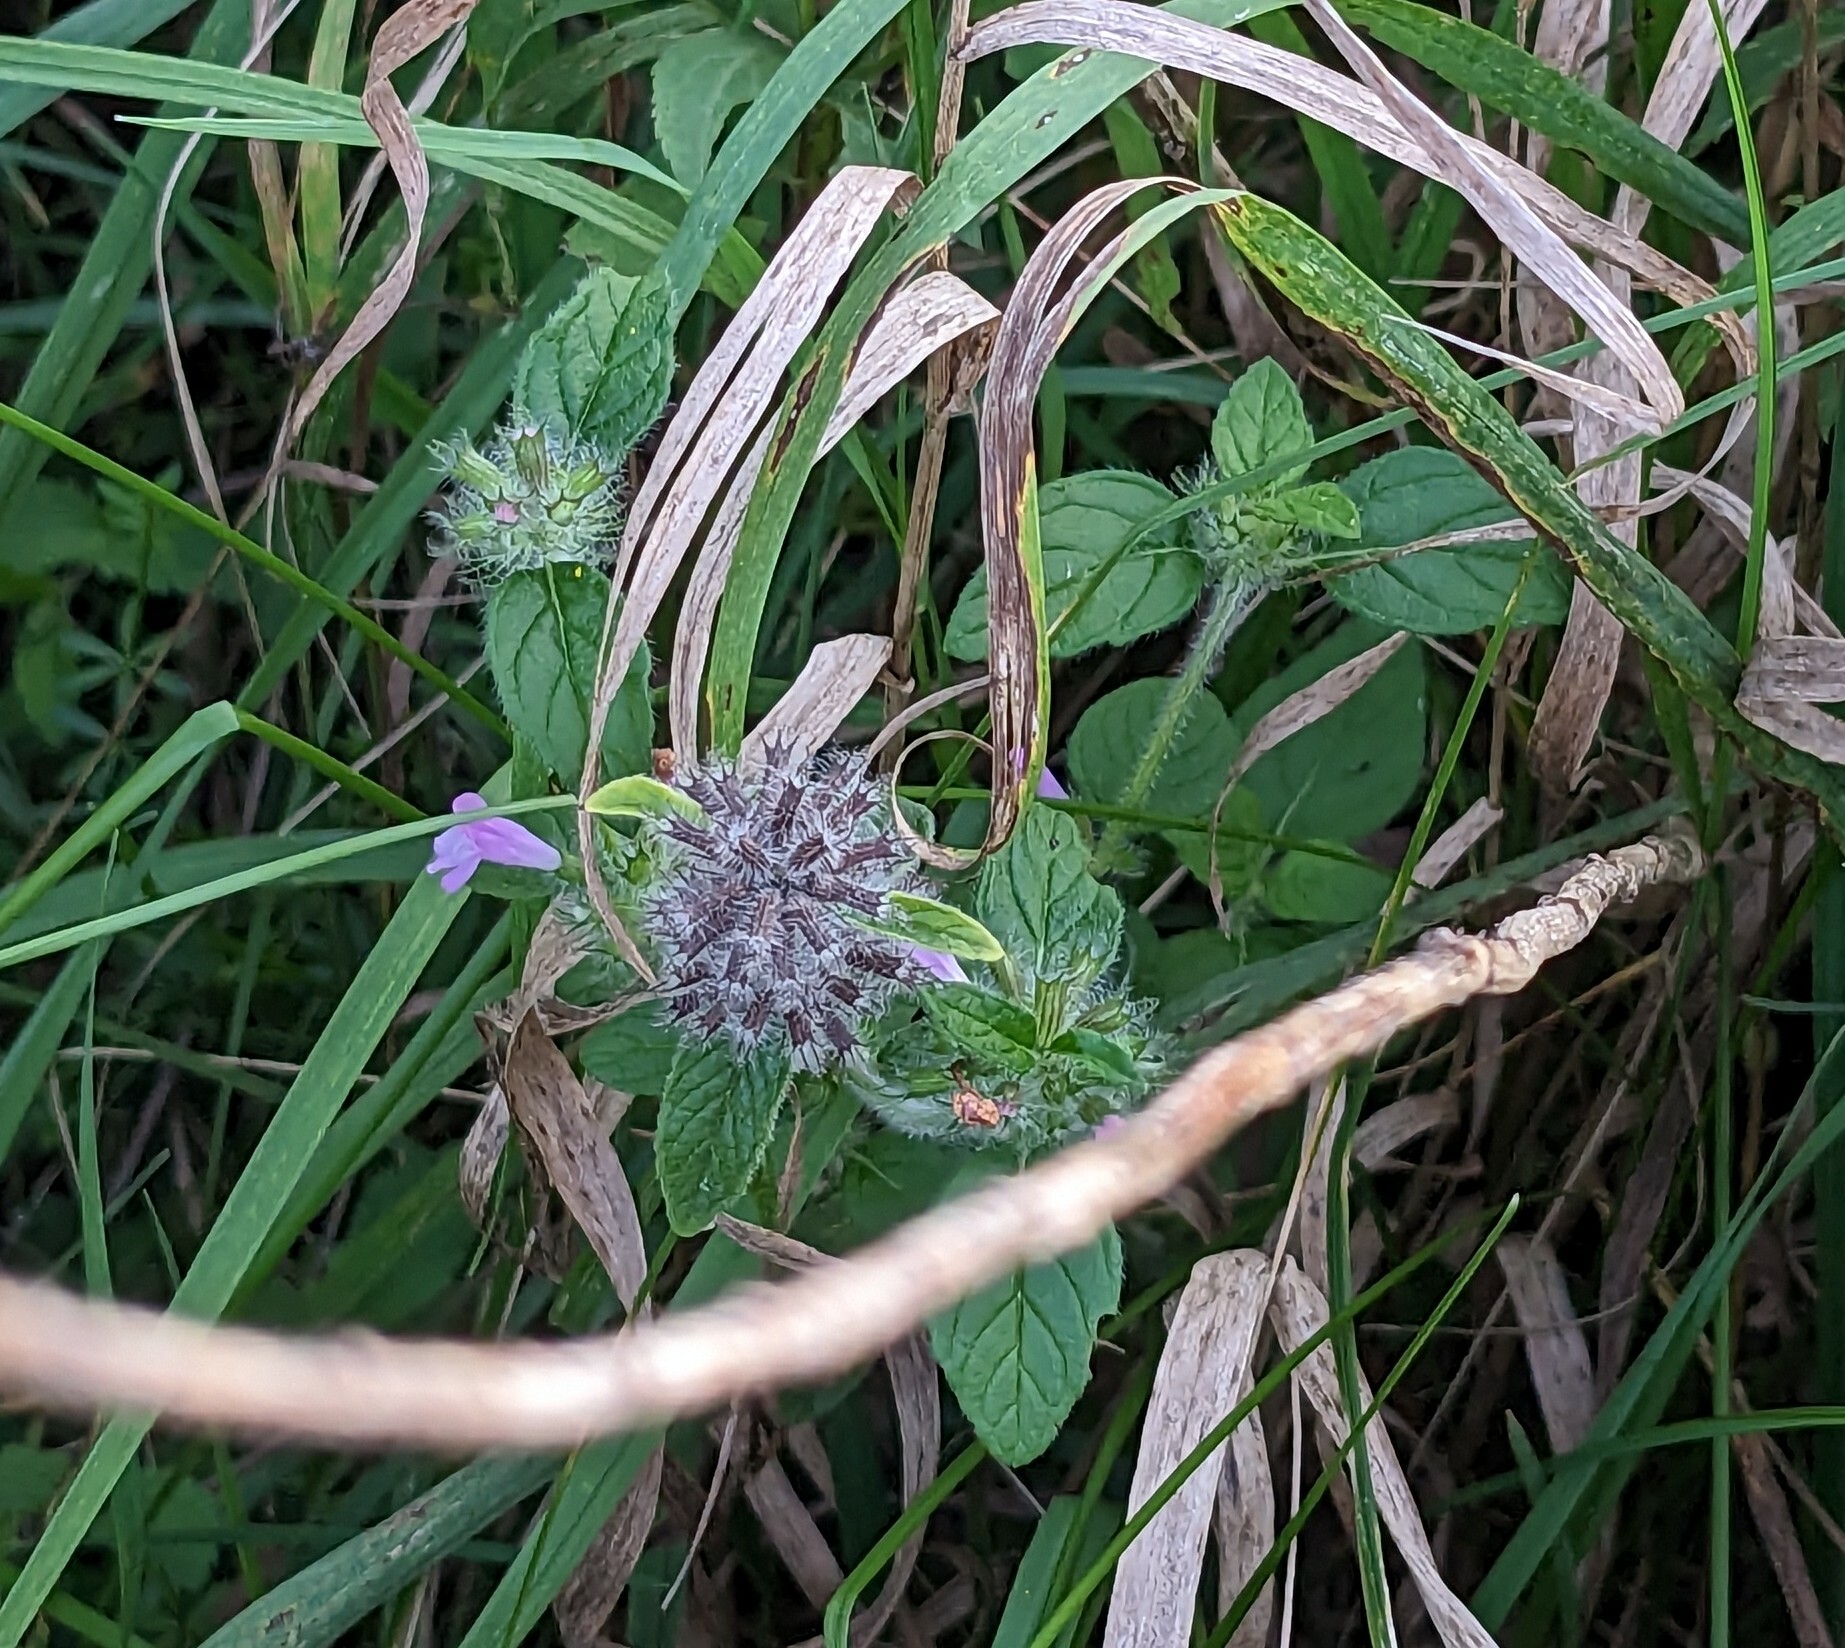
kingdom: Plantae
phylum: Tracheophyta
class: Magnoliopsida
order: Lamiales
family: Lamiaceae
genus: Clinopodium
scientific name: Clinopodium vulgare
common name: Wild basil
